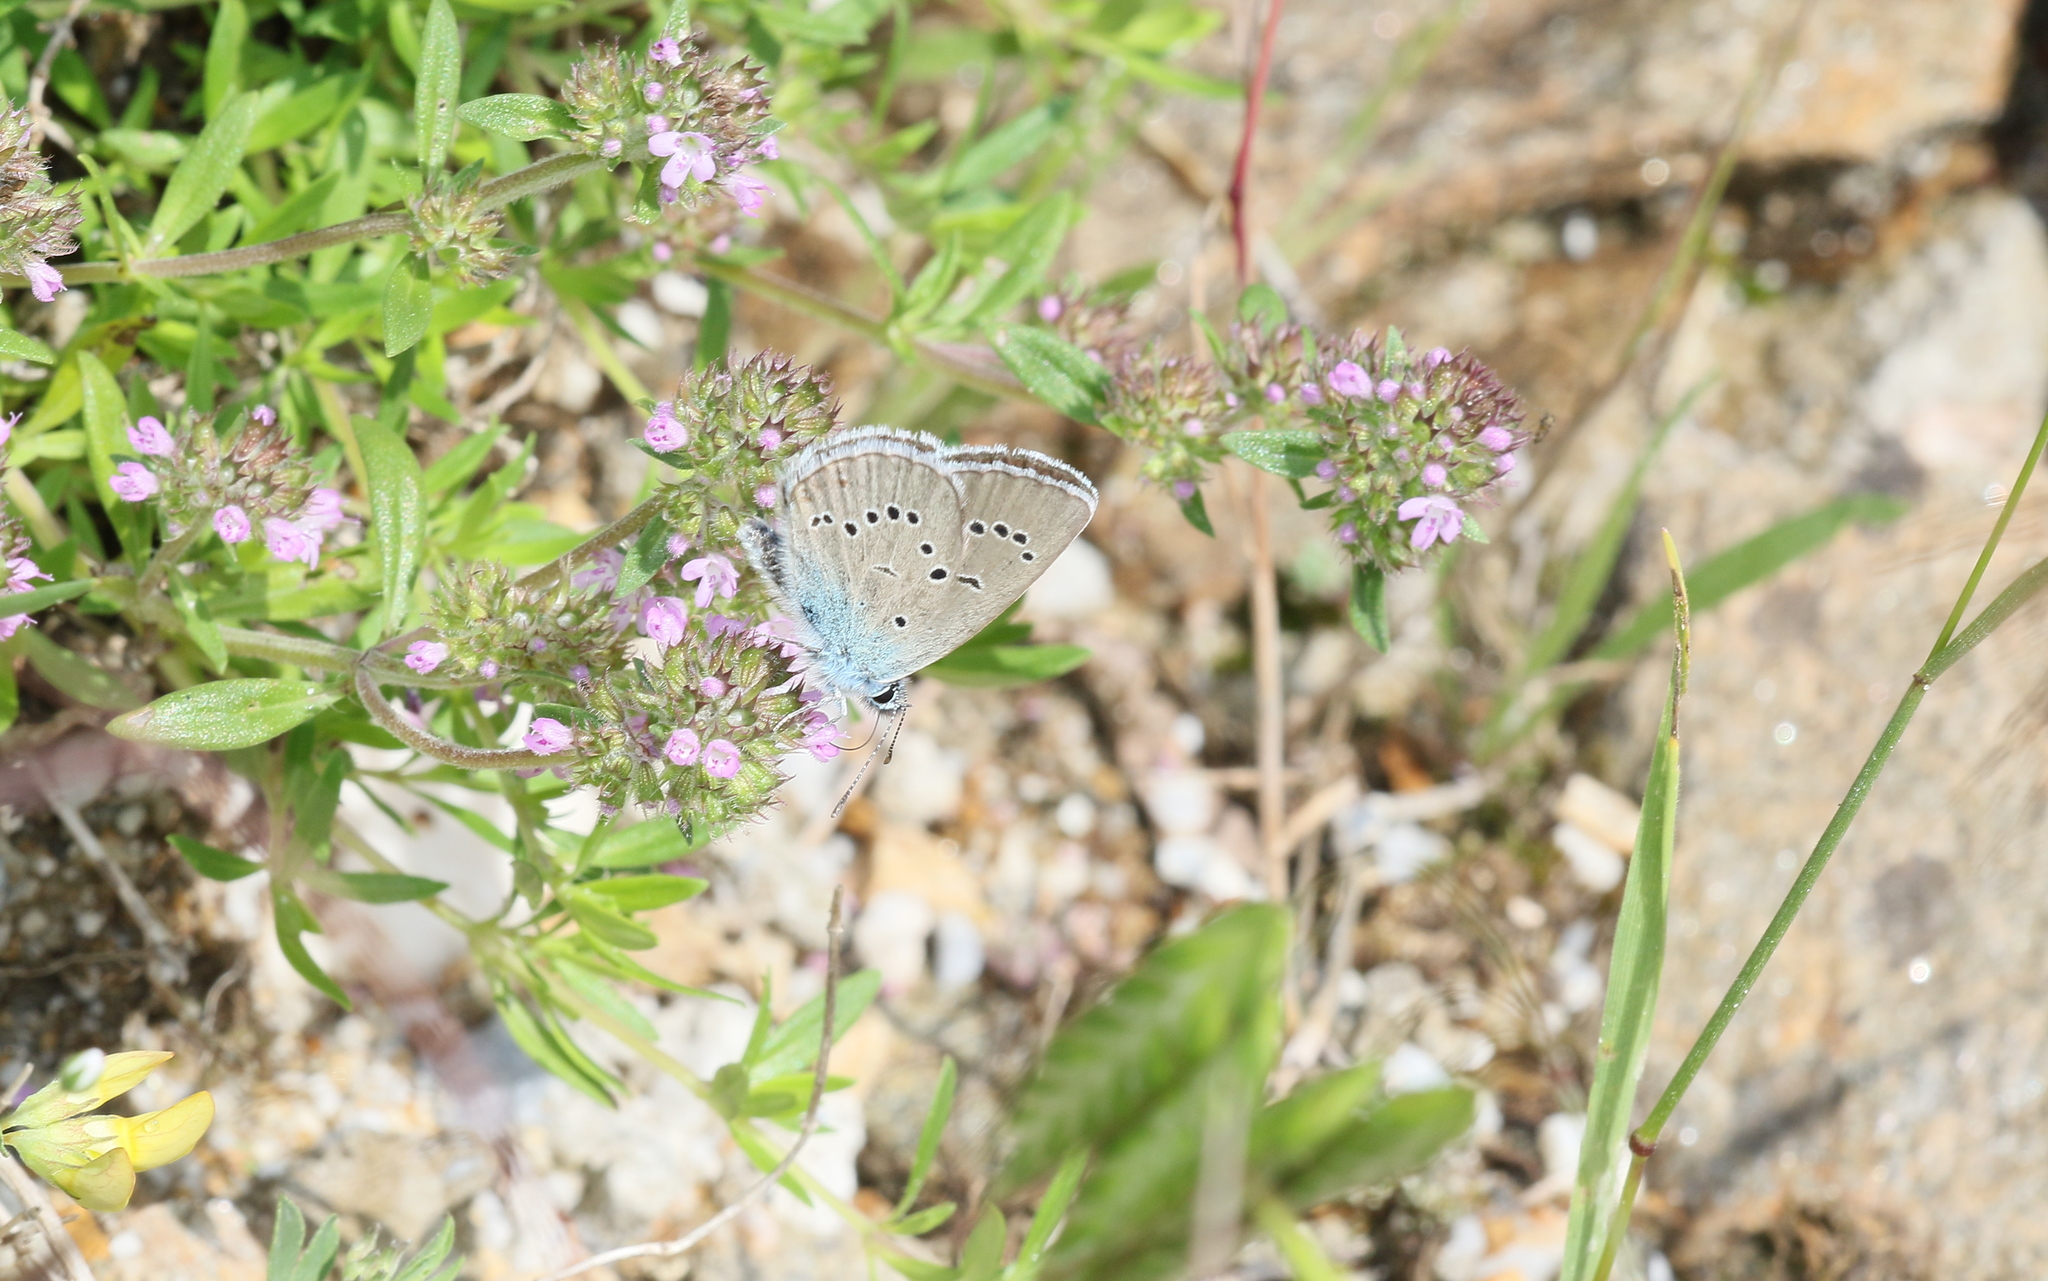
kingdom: Animalia
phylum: Arthropoda
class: Insecta
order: Lepidoptera
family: Lycaenidae
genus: Cyaniris
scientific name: Cyaniris semiargus
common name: Mazarine blue
